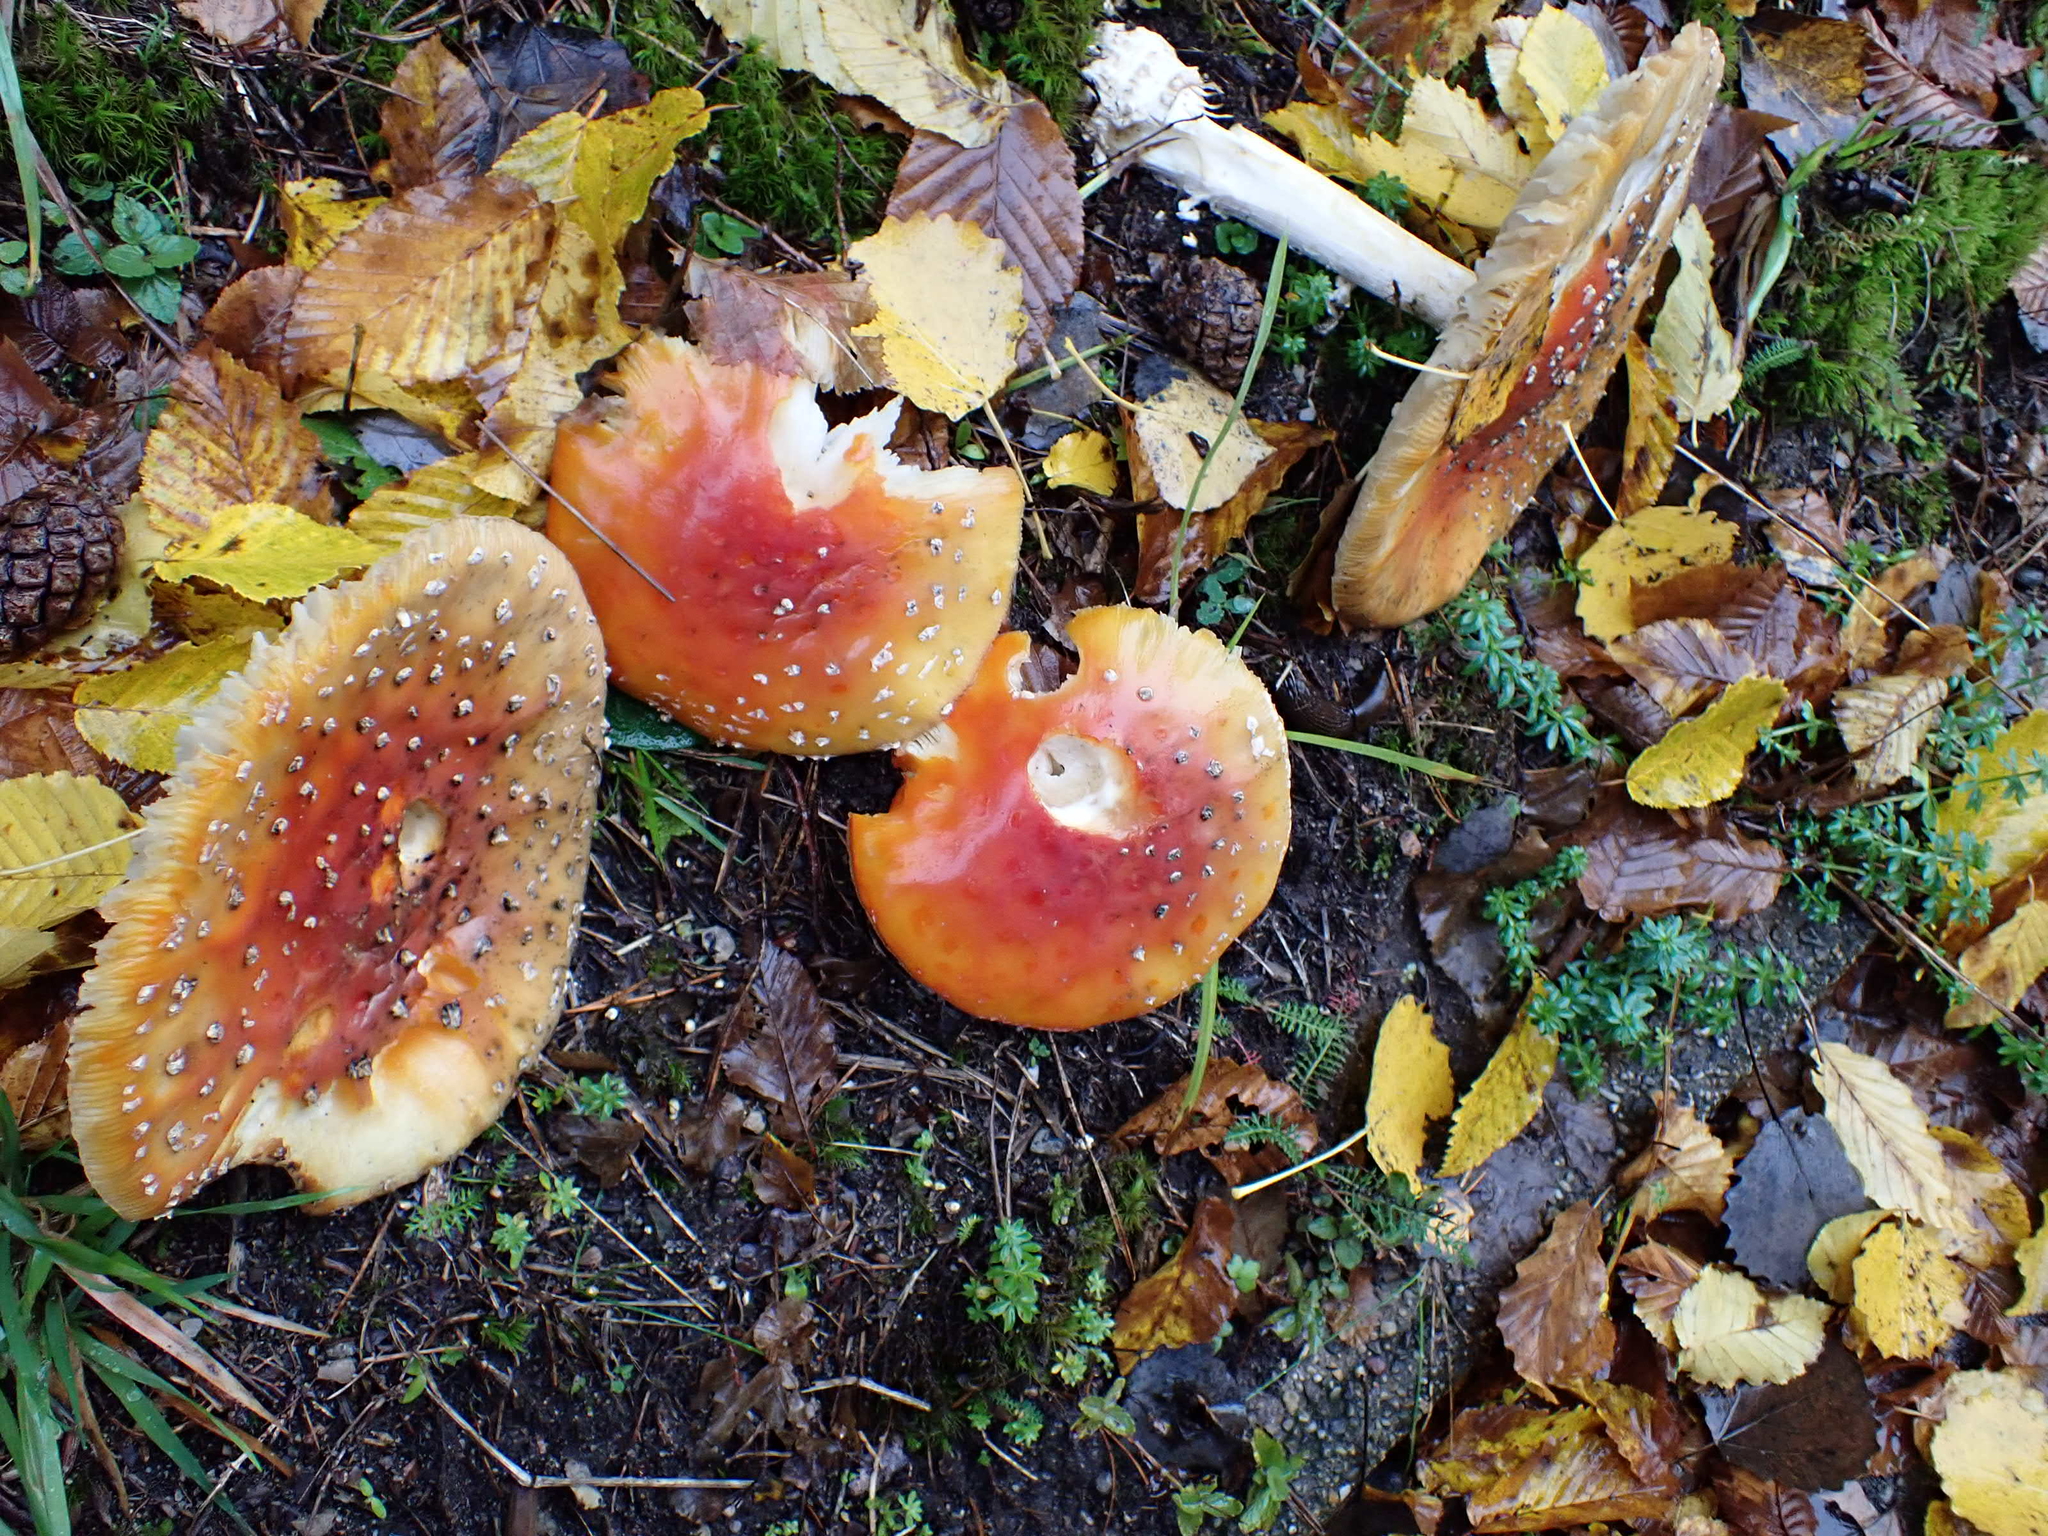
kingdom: Fungi
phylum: Basidiomycota
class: Agaricomycetes
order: Agaricales
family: Amanitaceae
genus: Amanita
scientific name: Amanita muscaria
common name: Fly agaric
